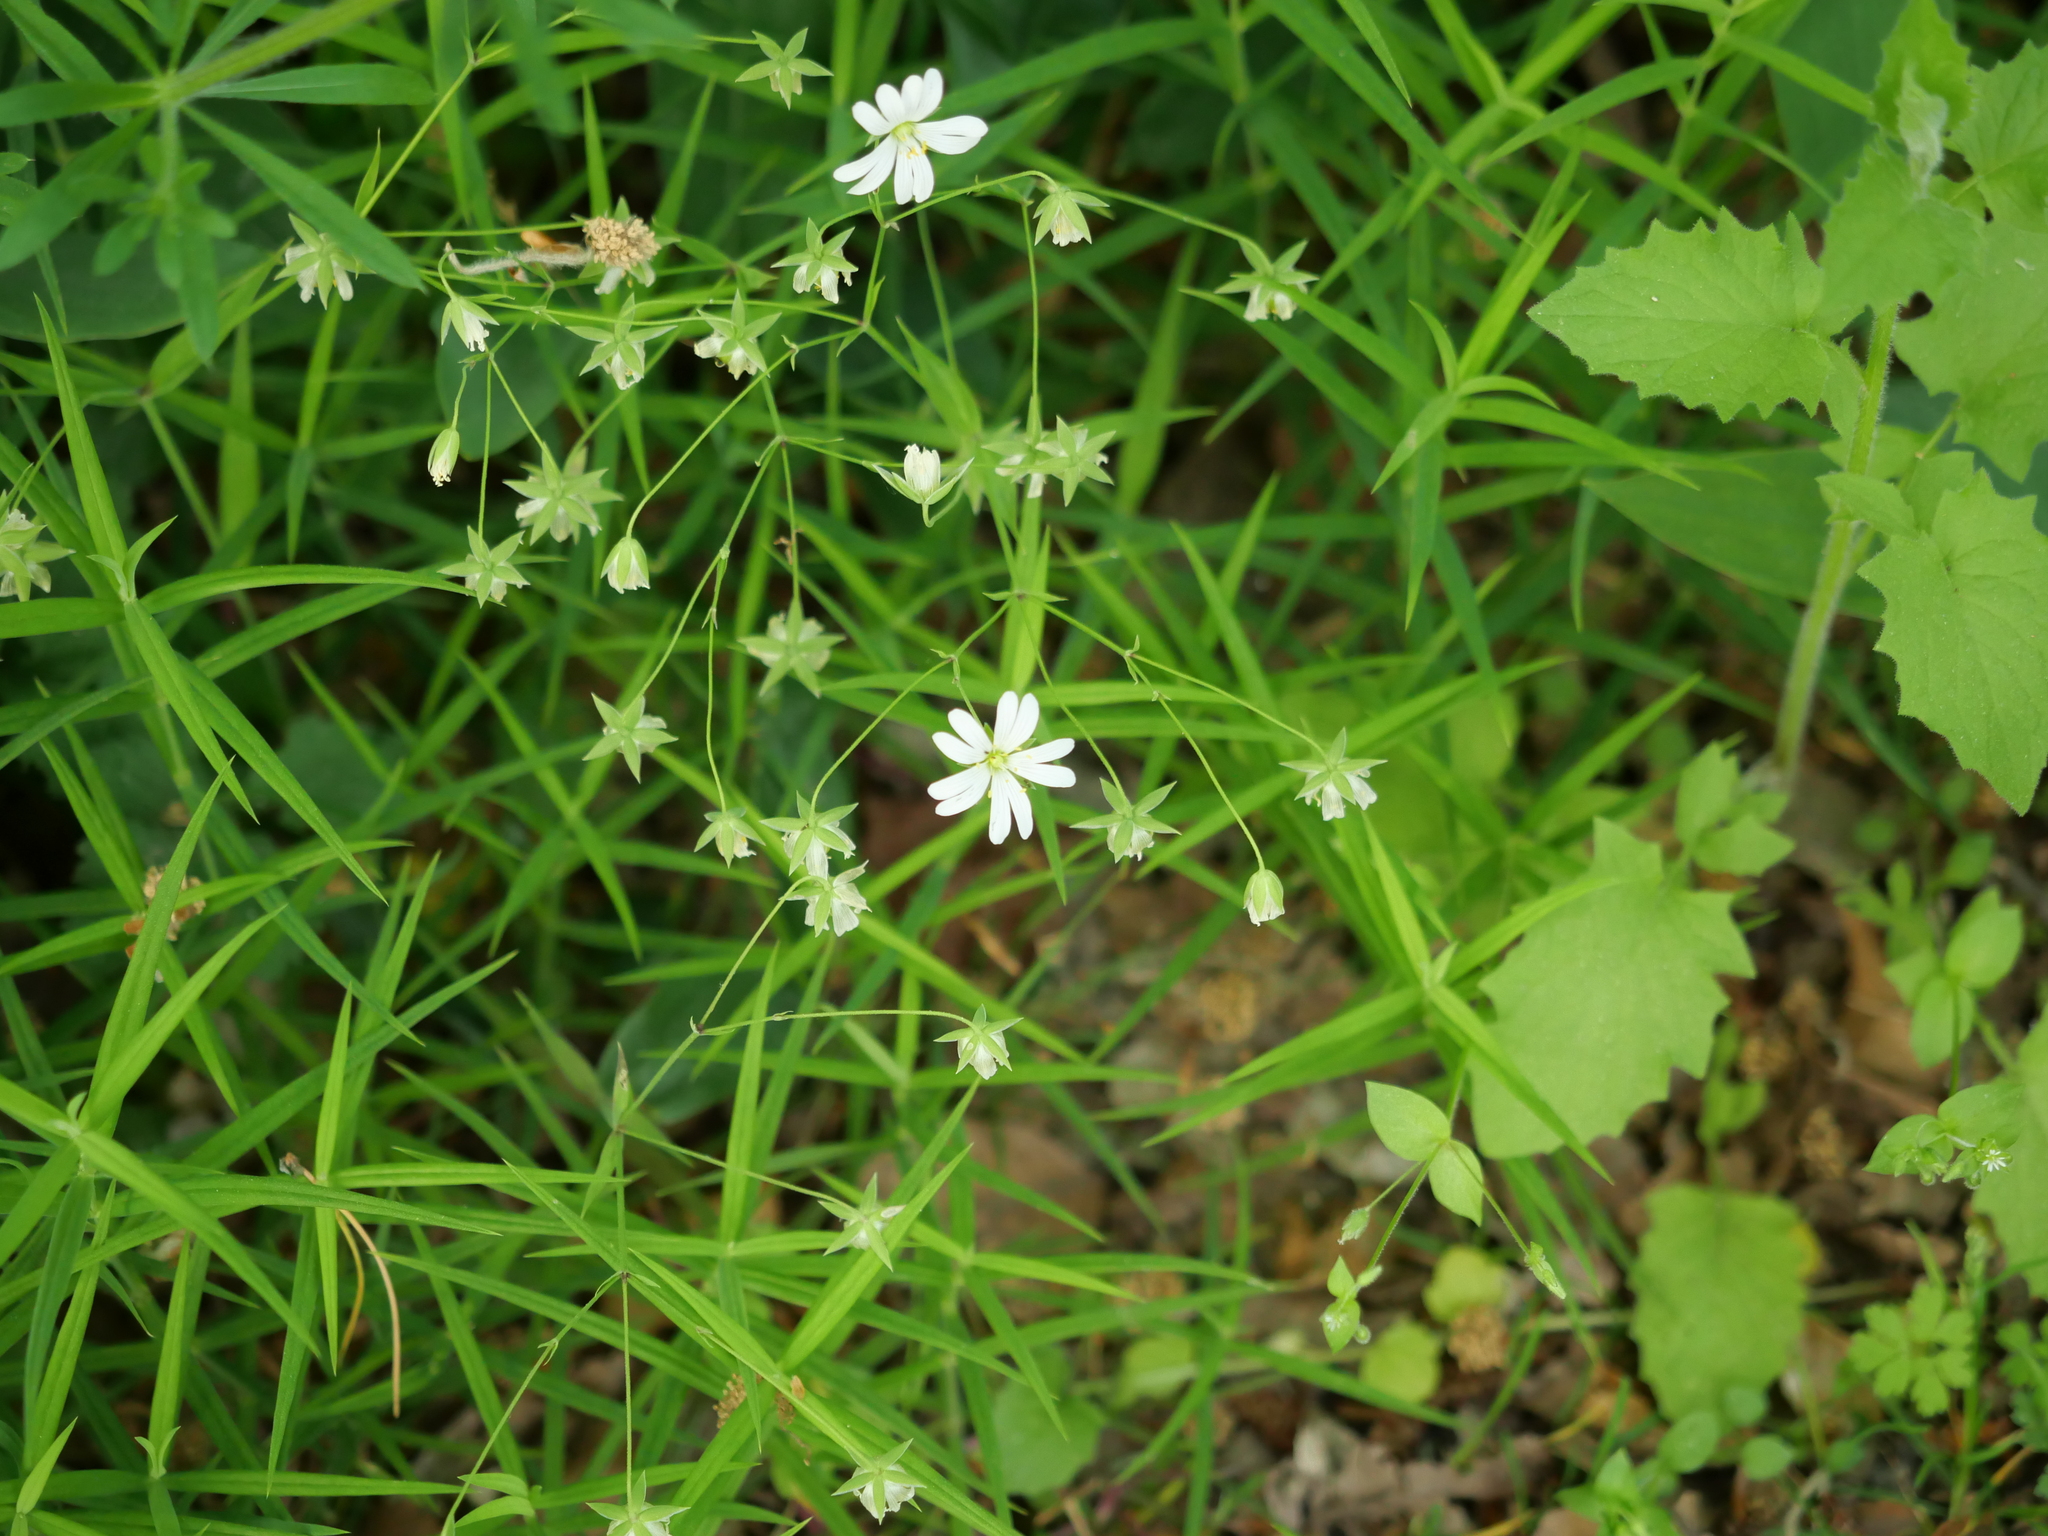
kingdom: Plantae
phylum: Tracheophyta
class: Magnoliopsida
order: Caryophyllales
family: Caryophyllaceae
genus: Rabelera
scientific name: Rabelera holostea
